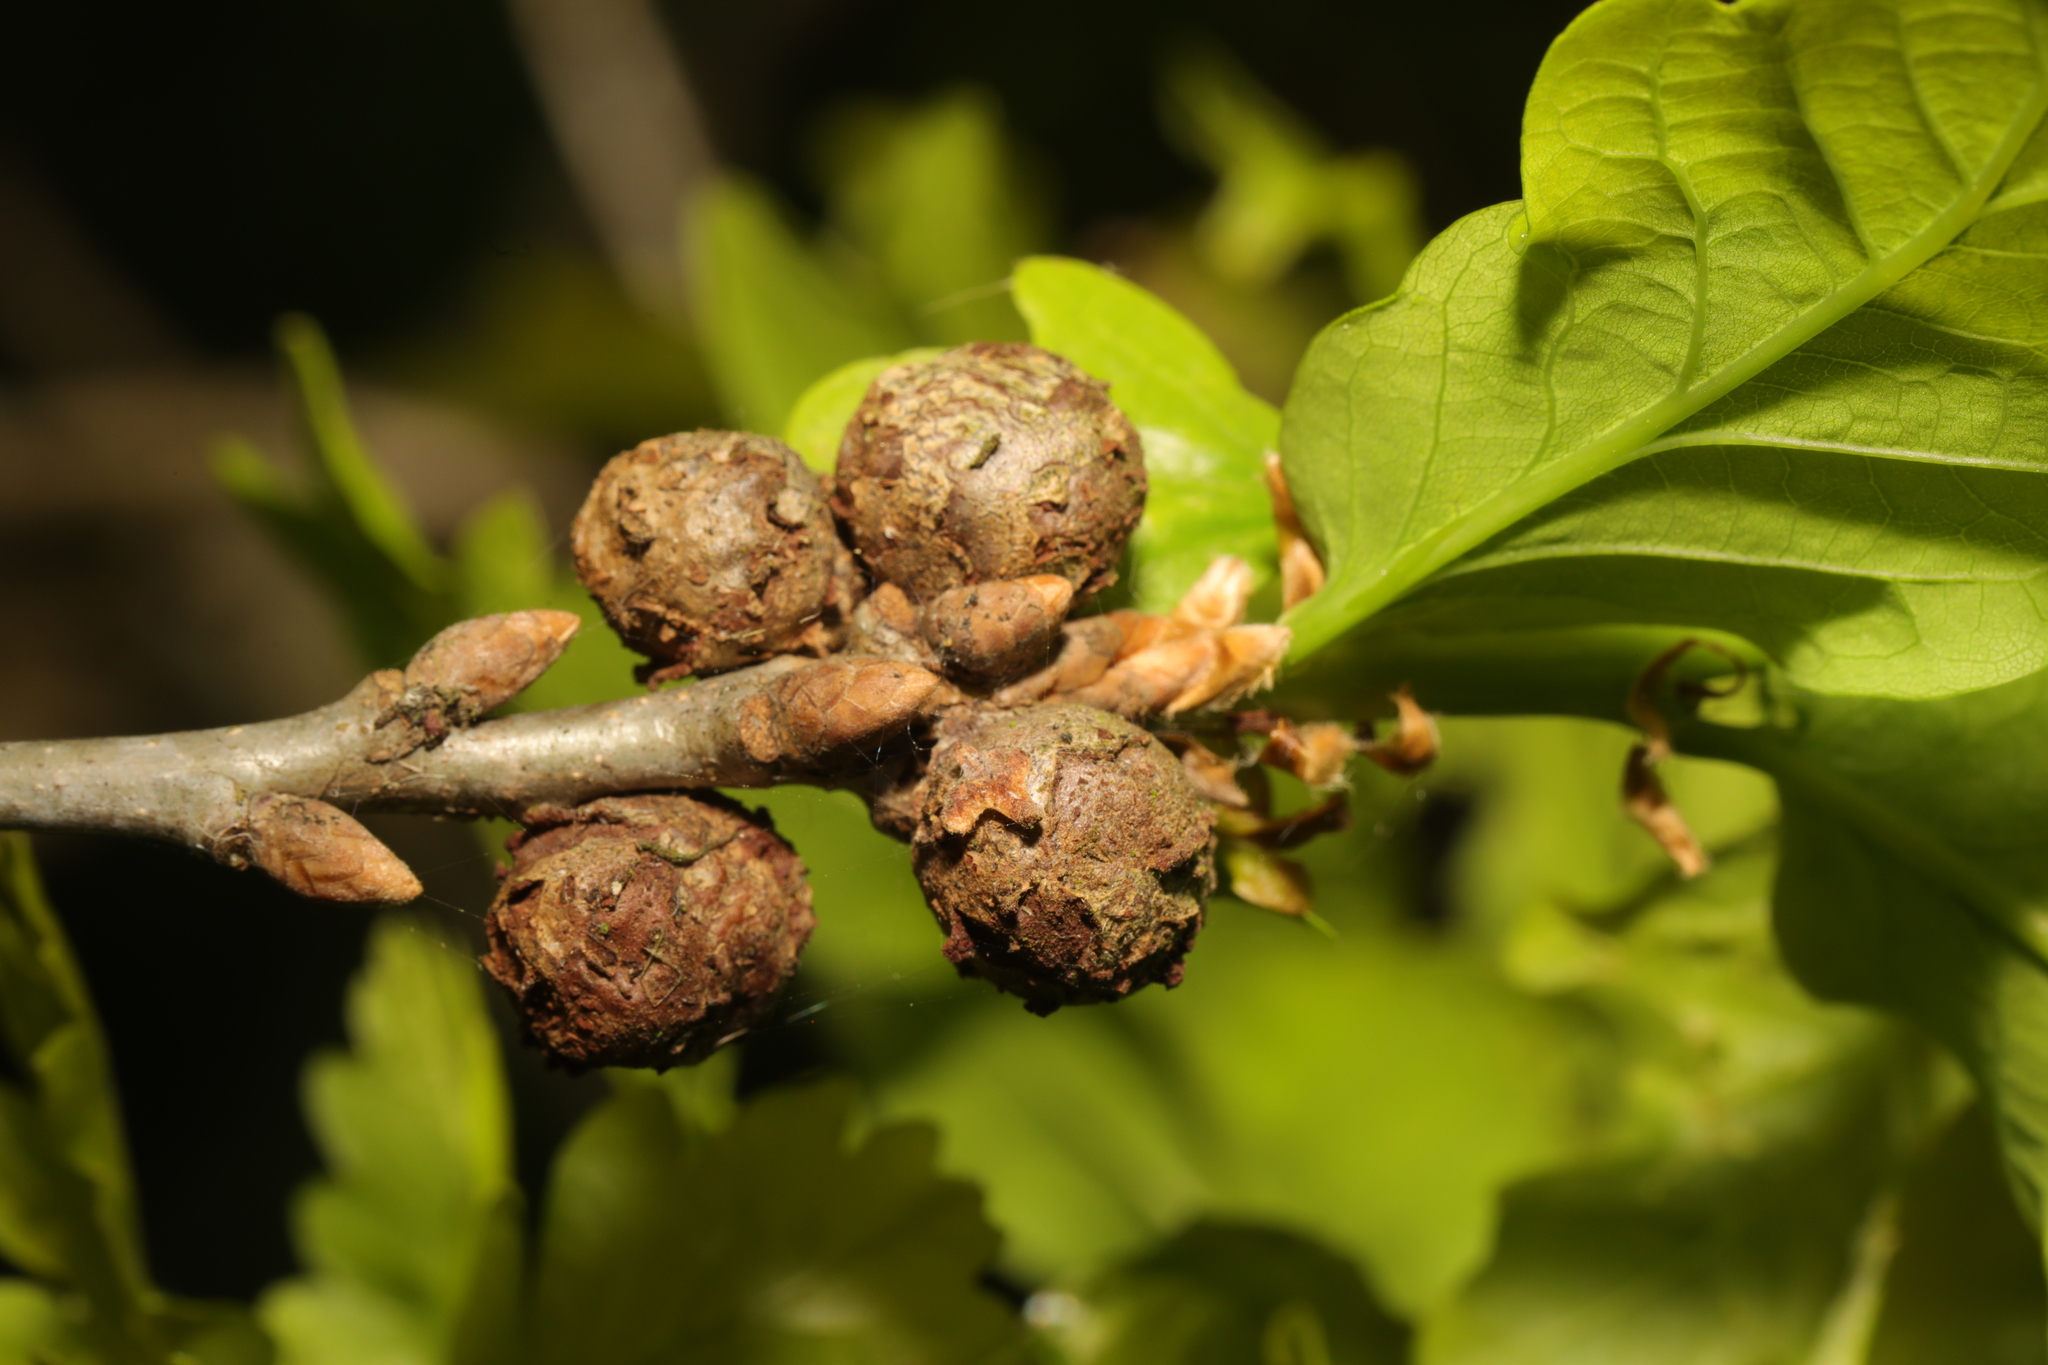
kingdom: Animalia
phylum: Arthropoda
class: Insecta
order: Hymenoptera
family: Cynipidae
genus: Andricus
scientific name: Andricus lignicolus
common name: Cola-nut gall
